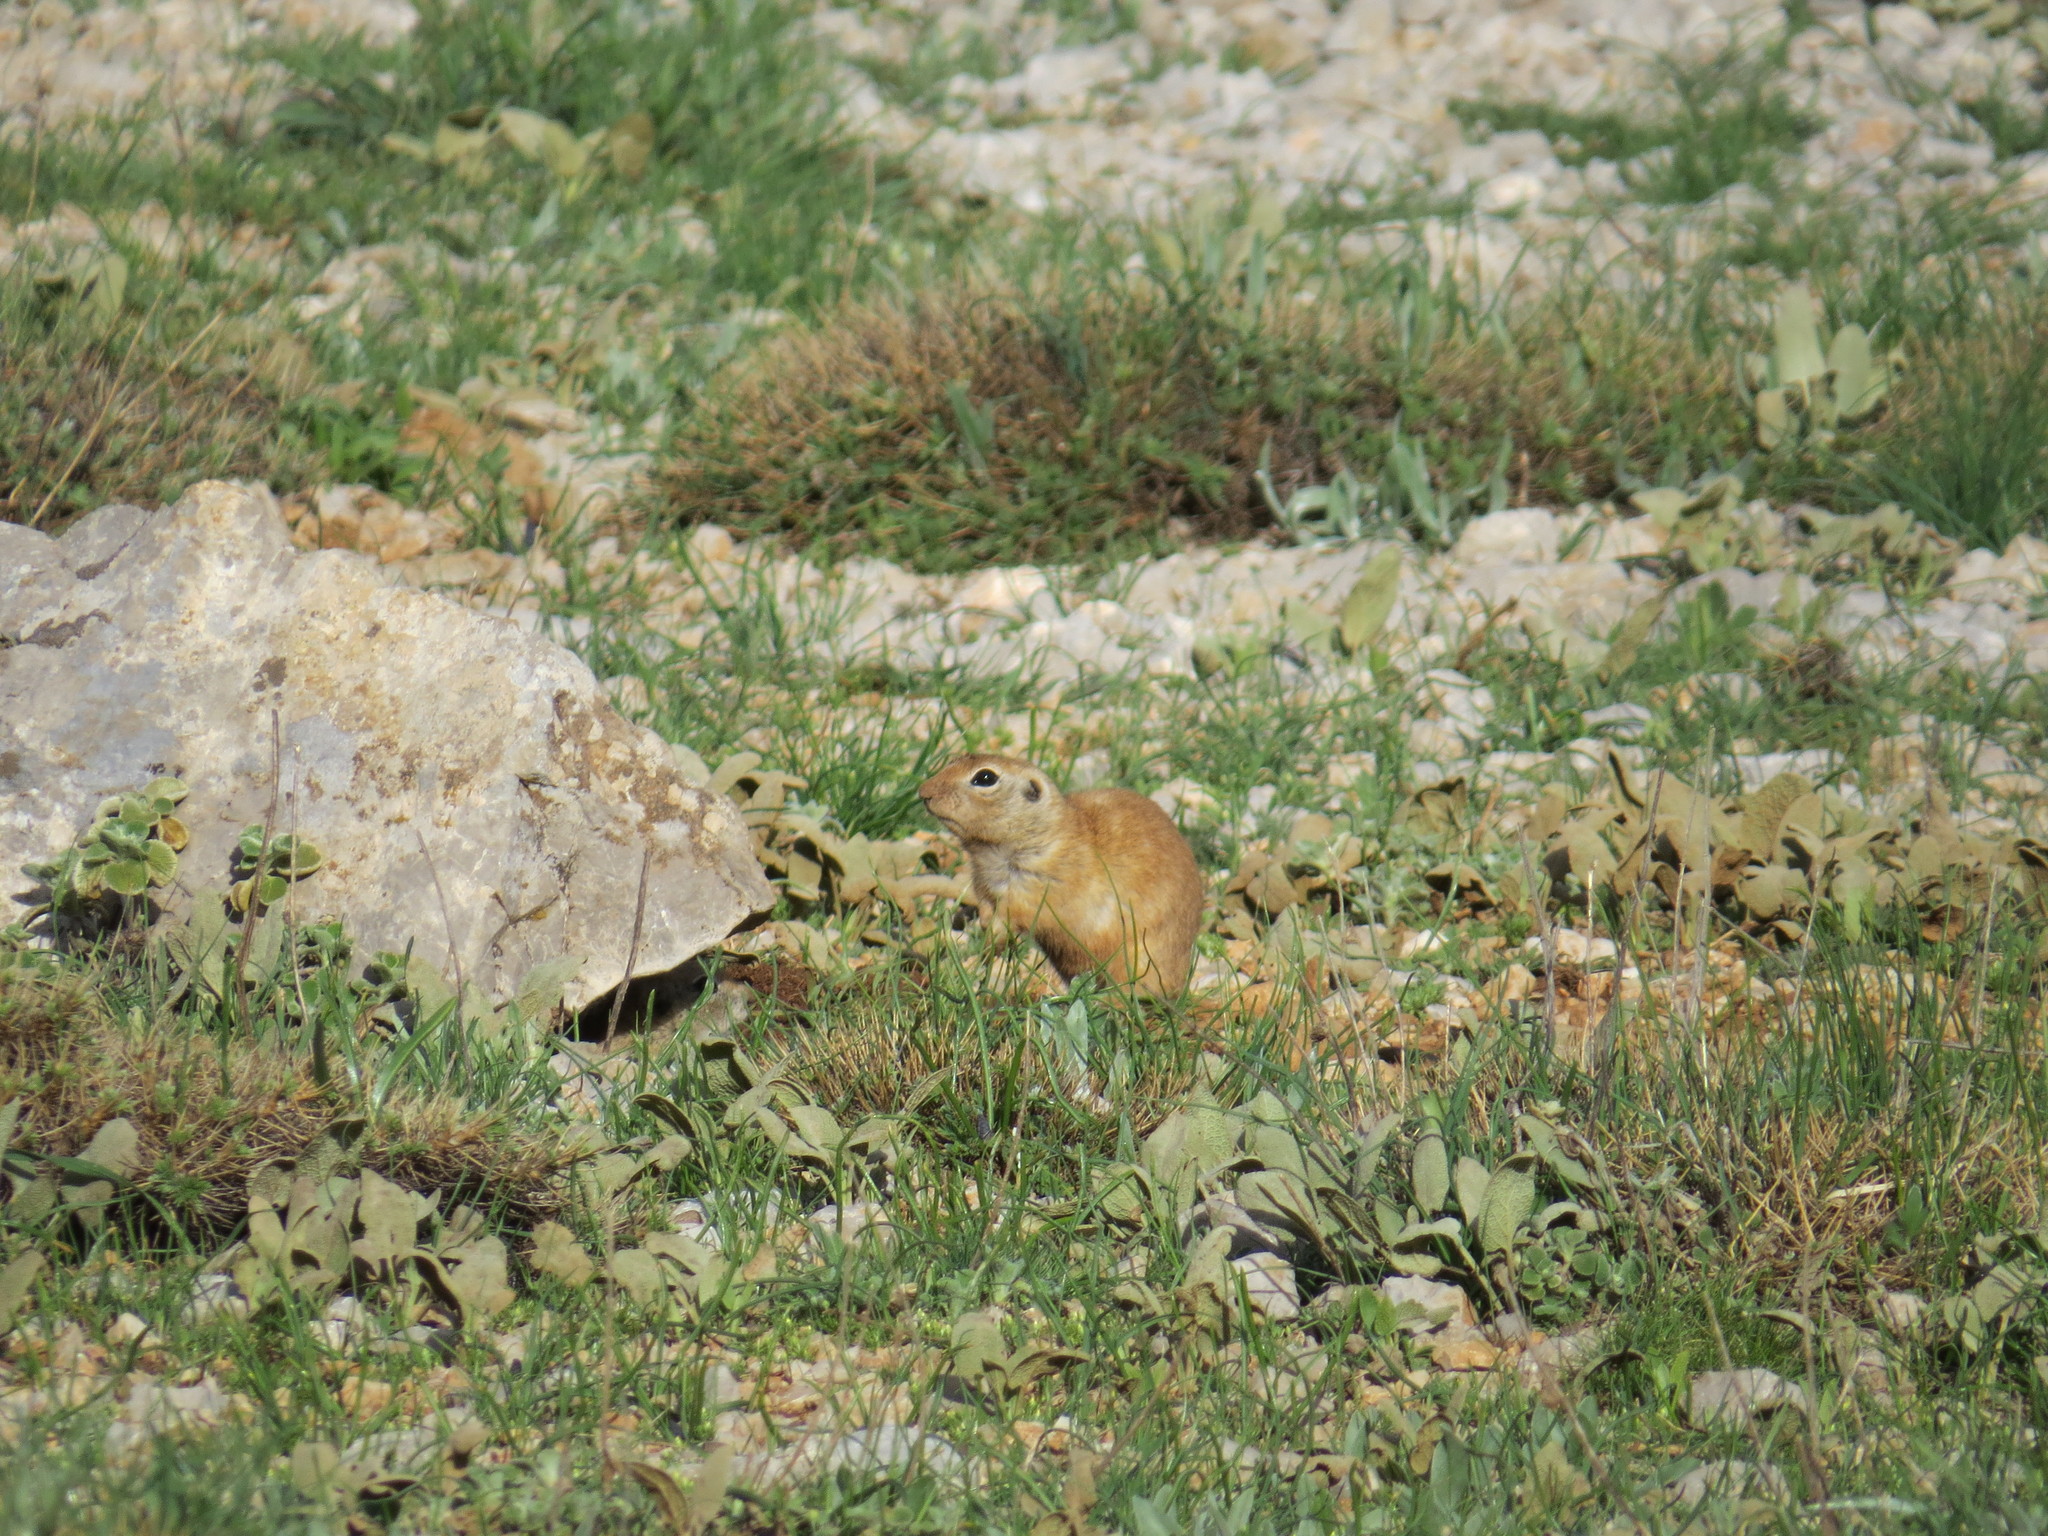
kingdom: Animalia
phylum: Chordata
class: Mammalia
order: Rodentia
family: Sciuridae
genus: Spermophilus
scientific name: Spermophilus xanthoprymnus
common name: Asia minor ground squirrel
